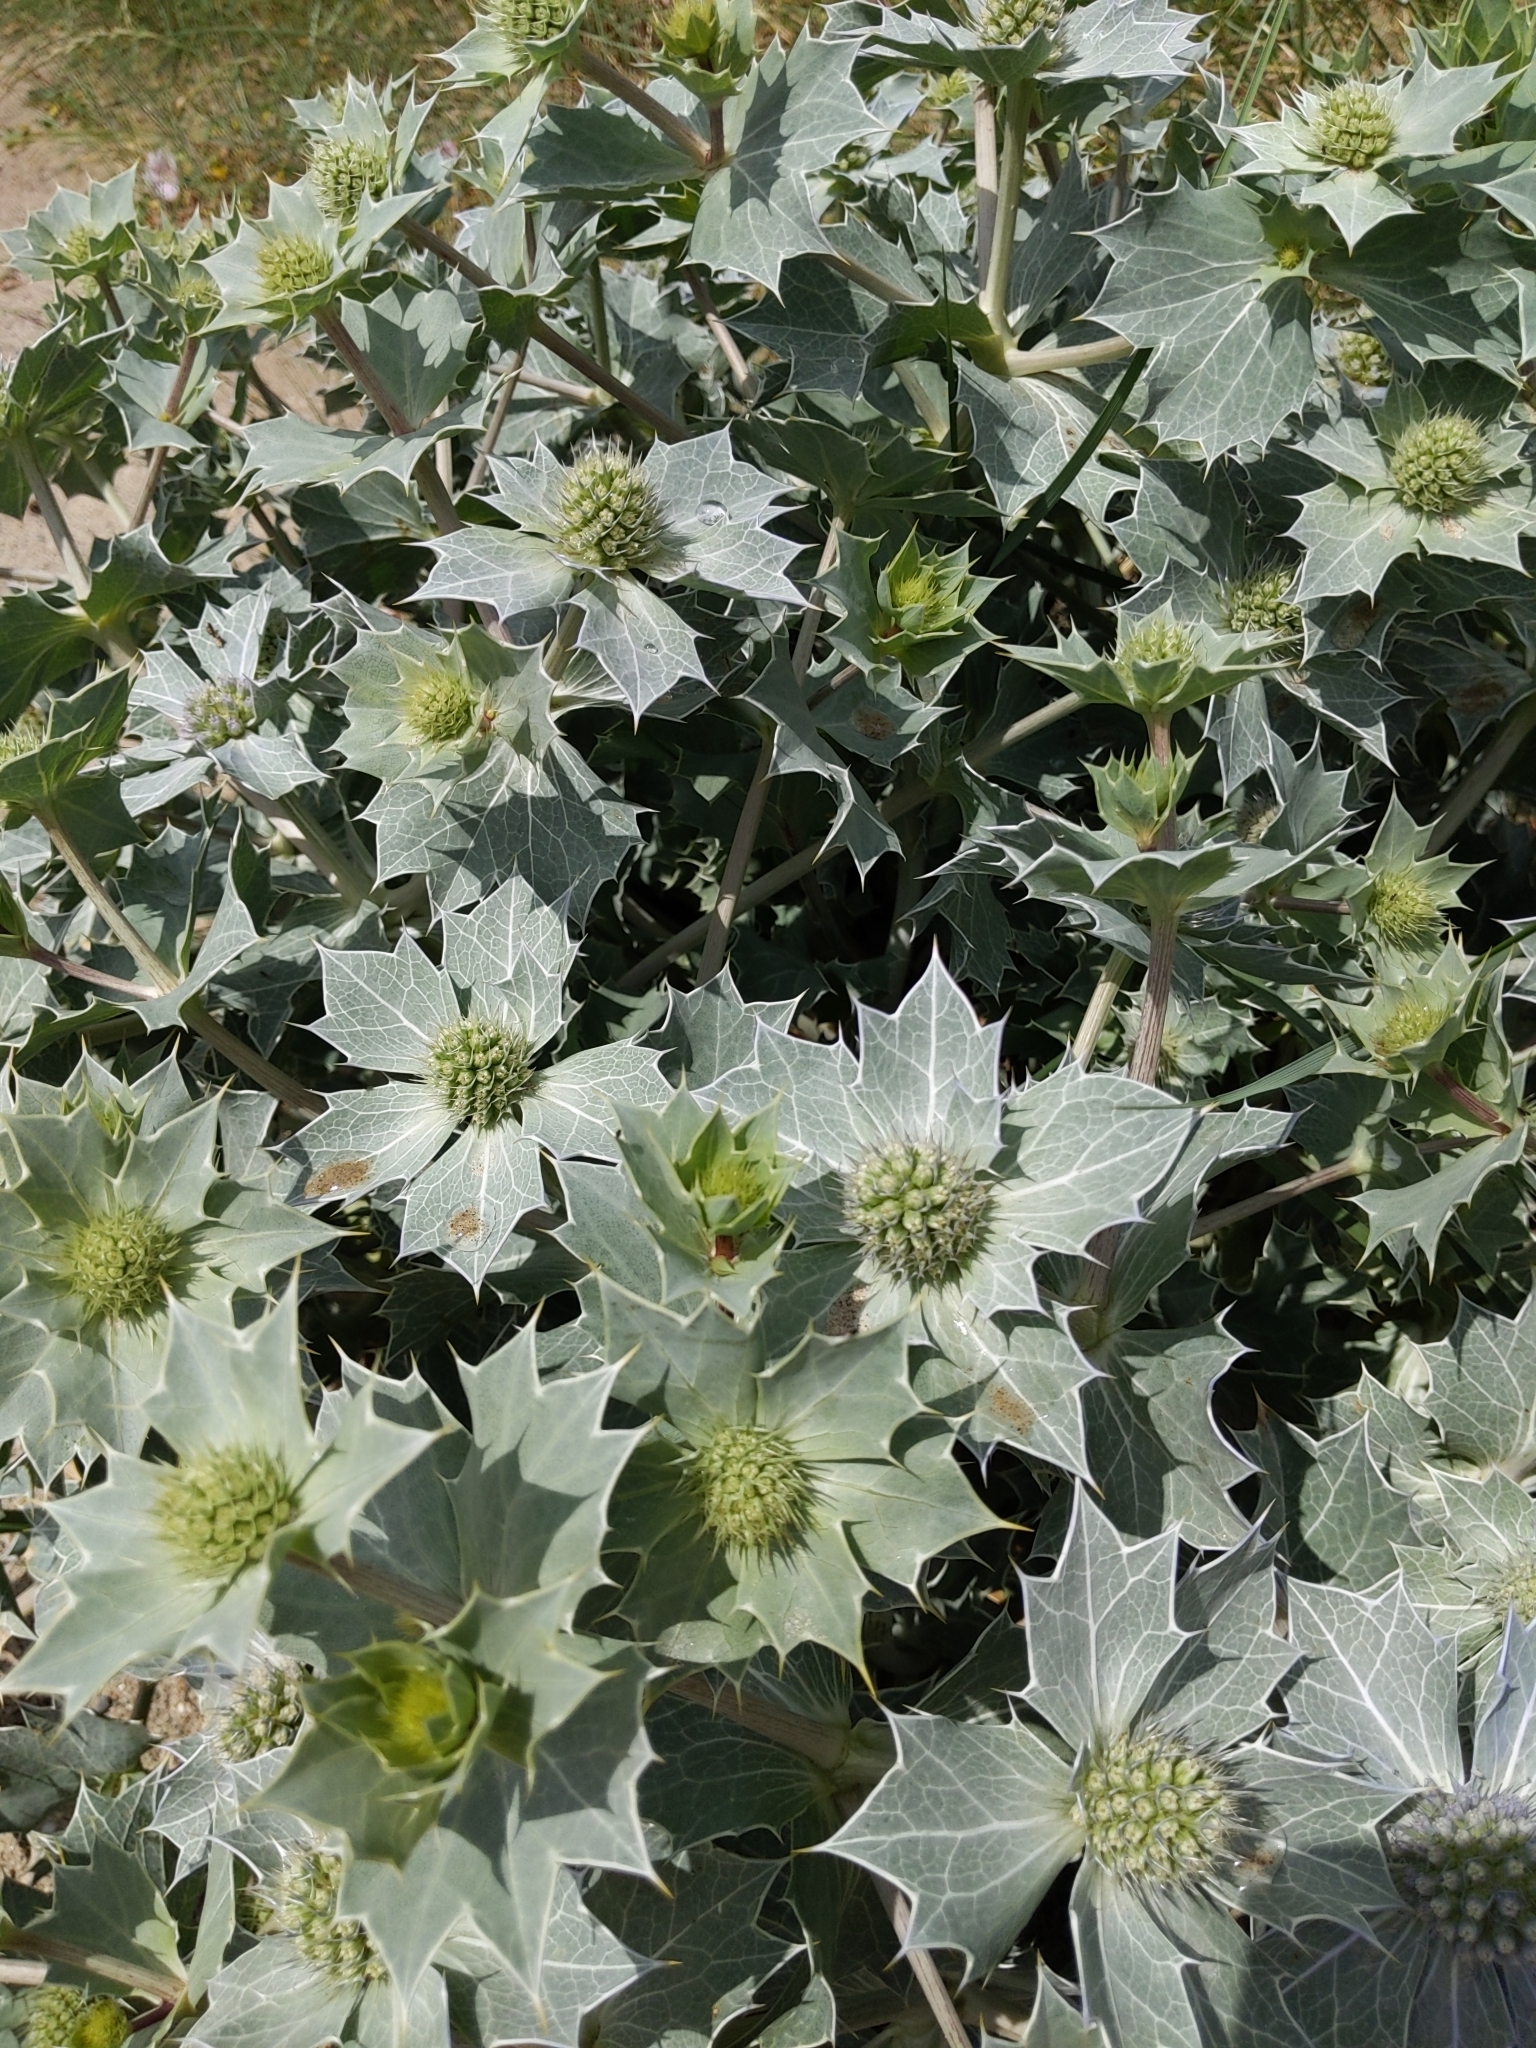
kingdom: Plantae
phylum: Tracheophyta
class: Magnoliopsida
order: Apiales
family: Apiaceae
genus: Eryngium
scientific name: Eryngium maritimum
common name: Sea-holly
